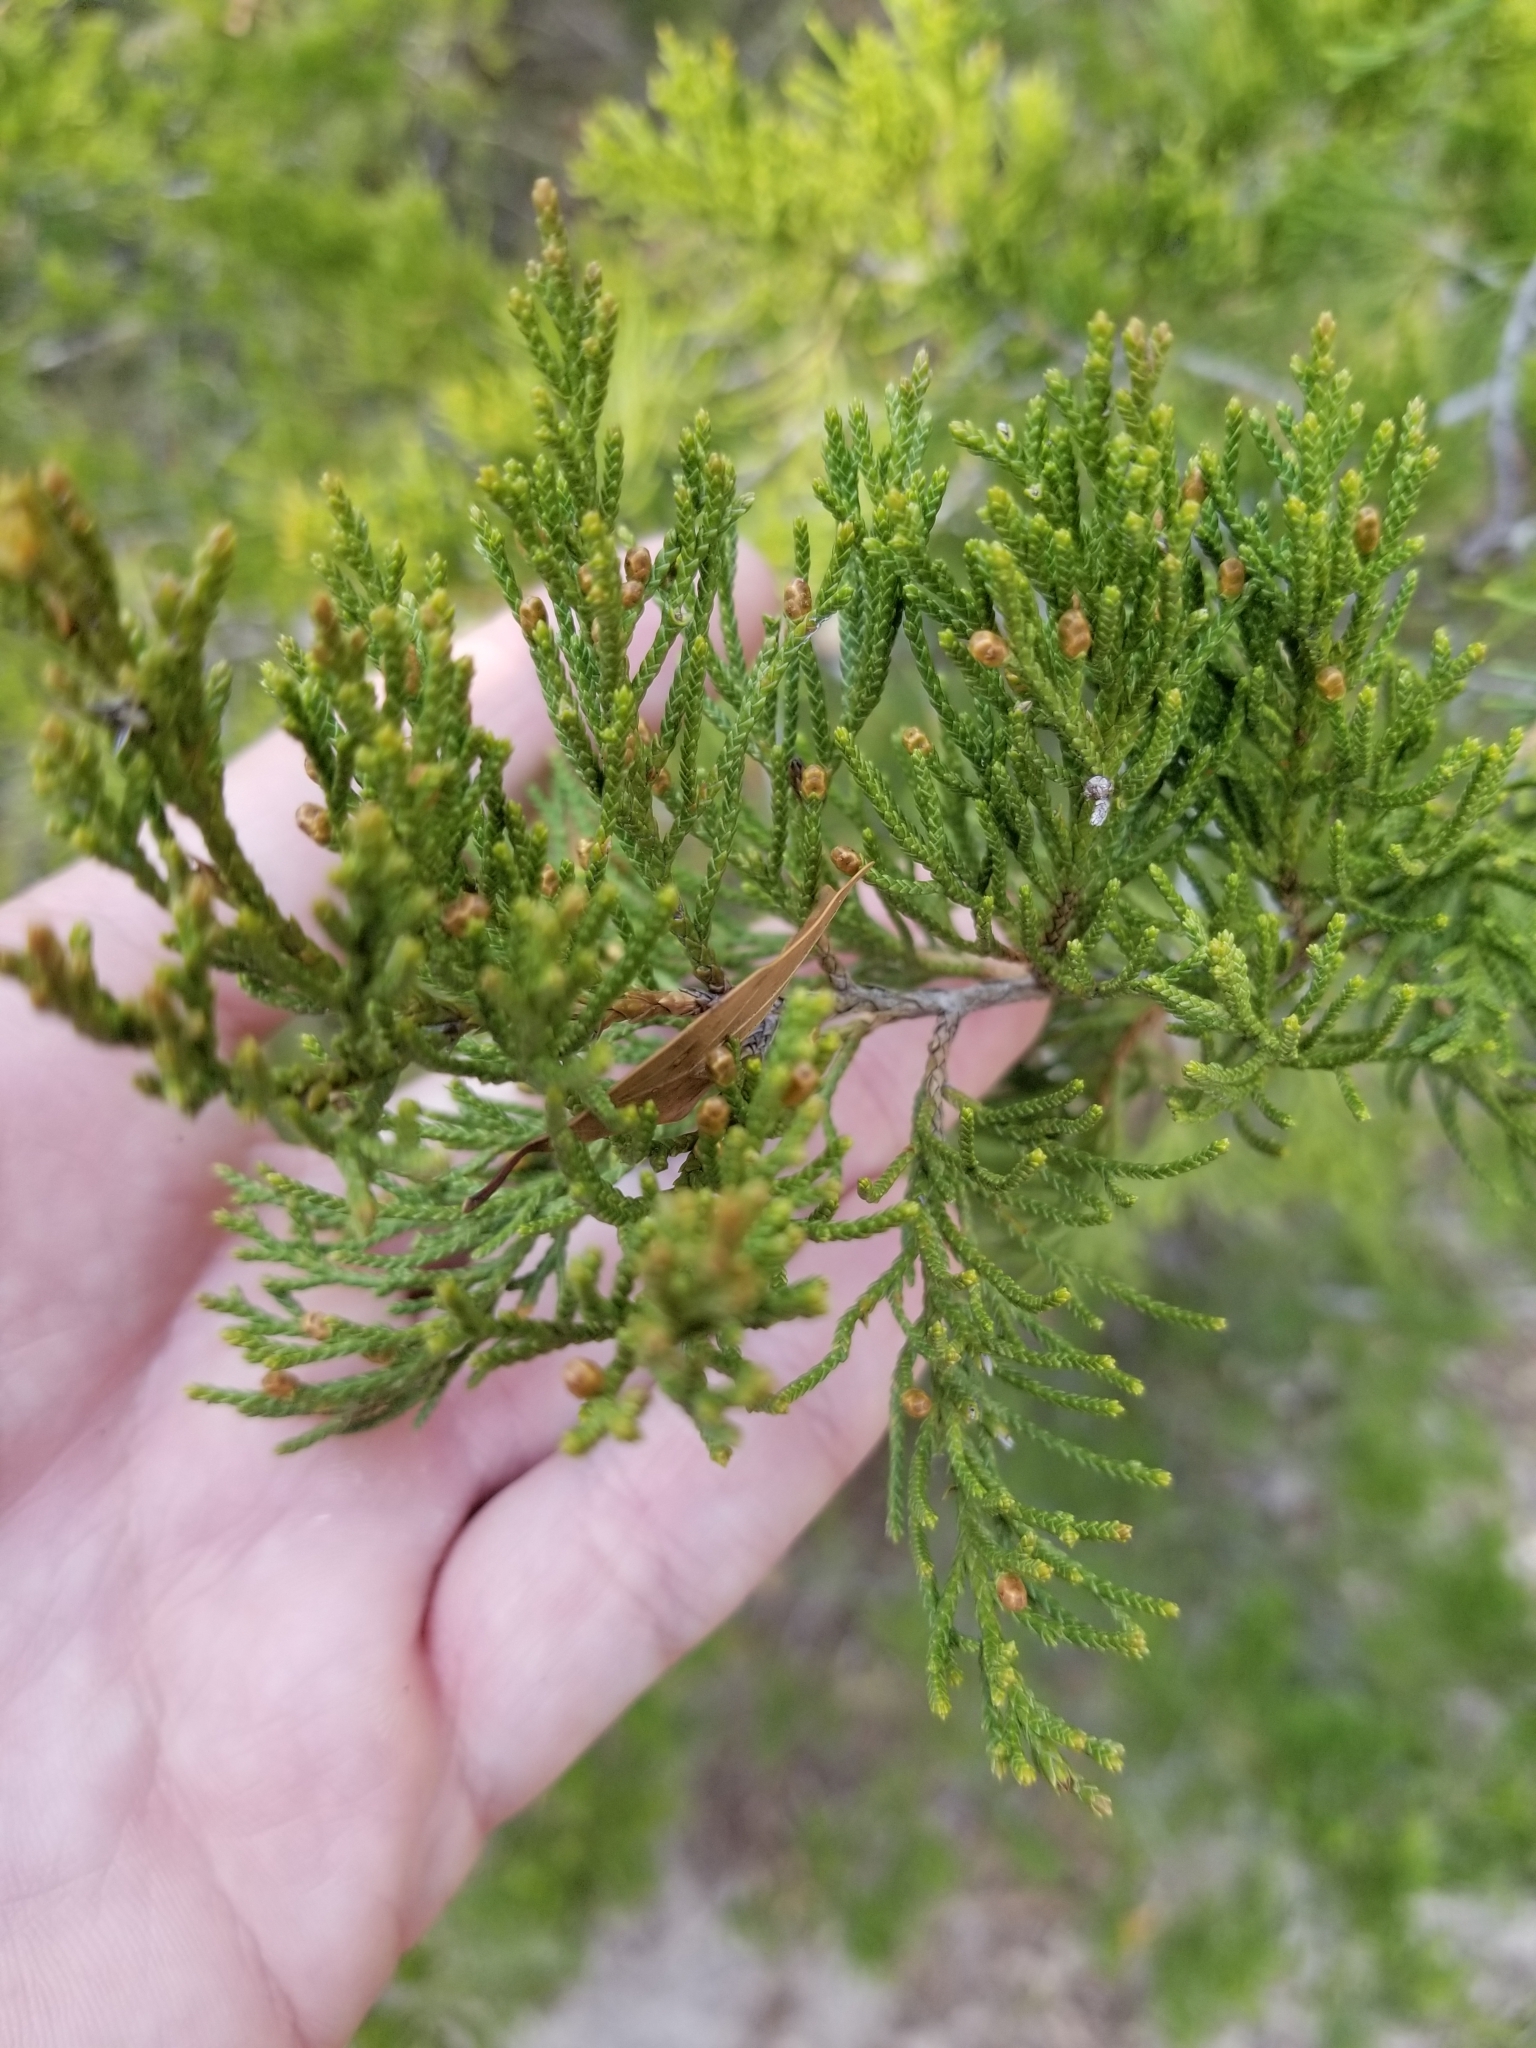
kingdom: Plantae
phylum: Tracheophyta
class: Pinopsida
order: Pinales
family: Cupressaceae
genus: Juniperus
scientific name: Juniperus virginiana
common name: Red juniper
